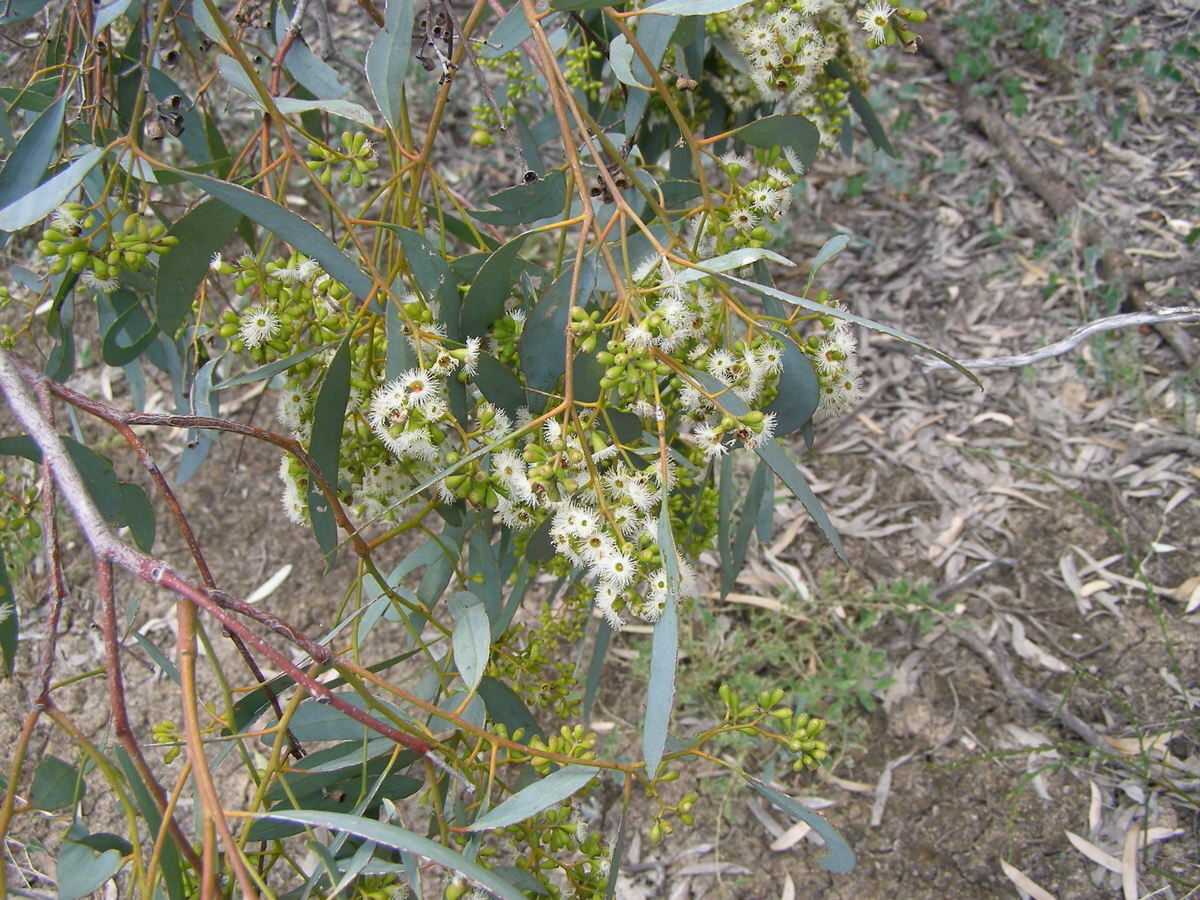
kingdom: Plantae
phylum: Tracheophyta
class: Magnoliopsida
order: Myrtales
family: Myrtaceae
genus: Eucalyptus
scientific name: Eucalyptus largiflorens
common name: Black-box
